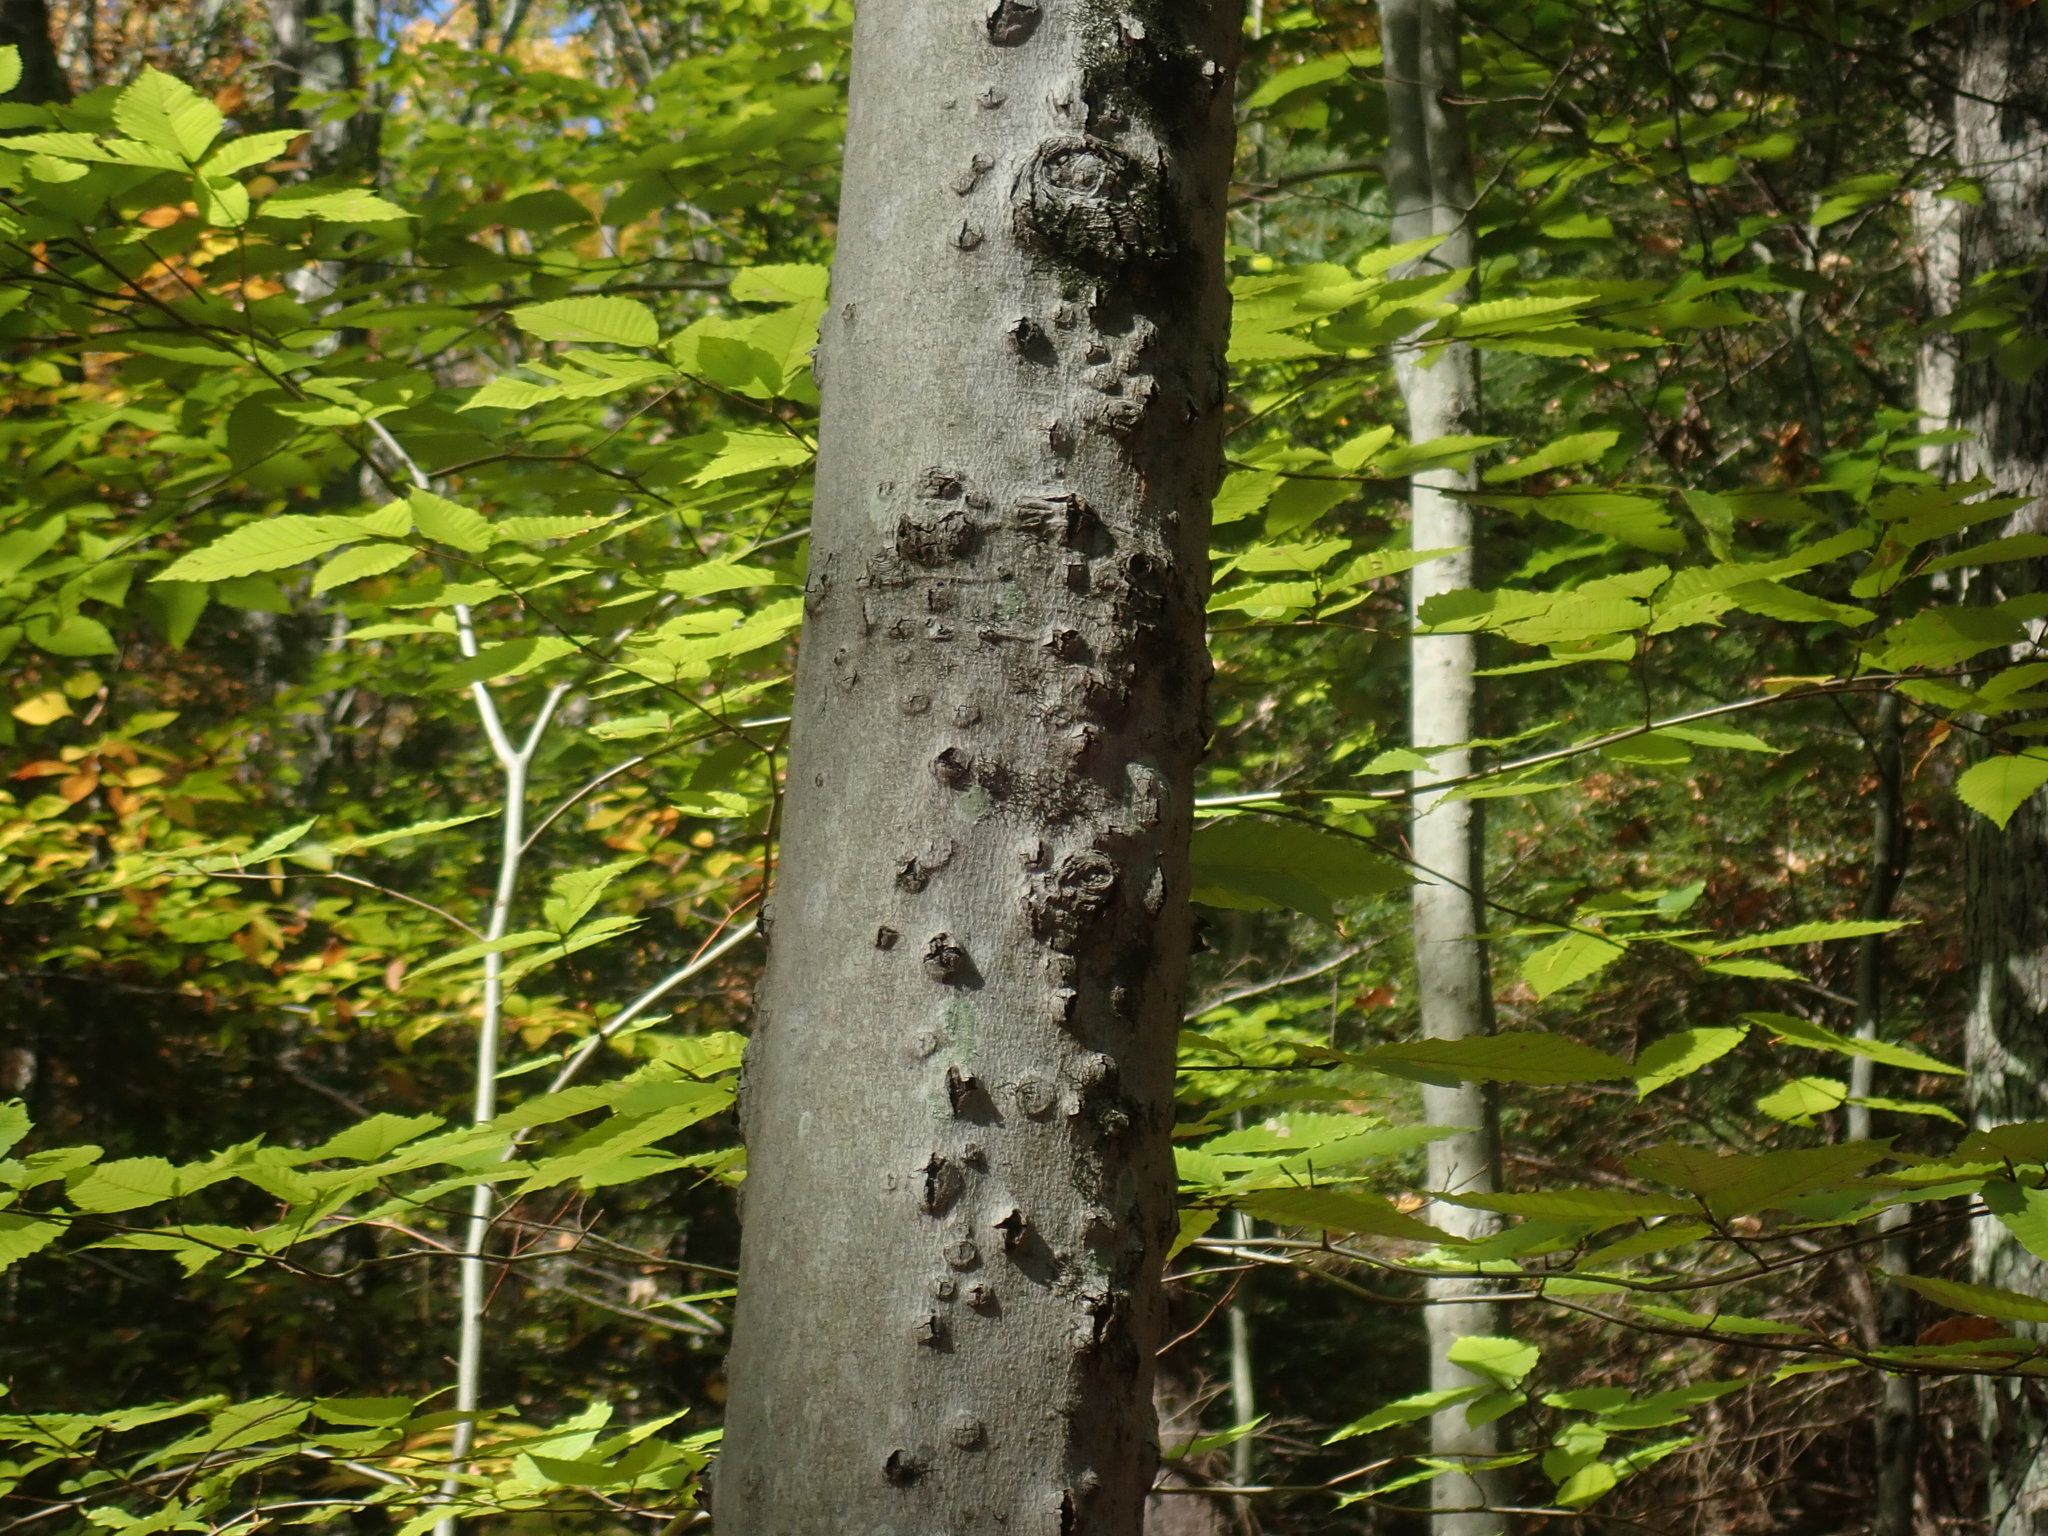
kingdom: Fungi
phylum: Ascomycota
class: Sordariomycetes
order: Hypocreales
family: Nectriaceae
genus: Neonectria
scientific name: Neonectria faginata
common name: Beech bark canker
